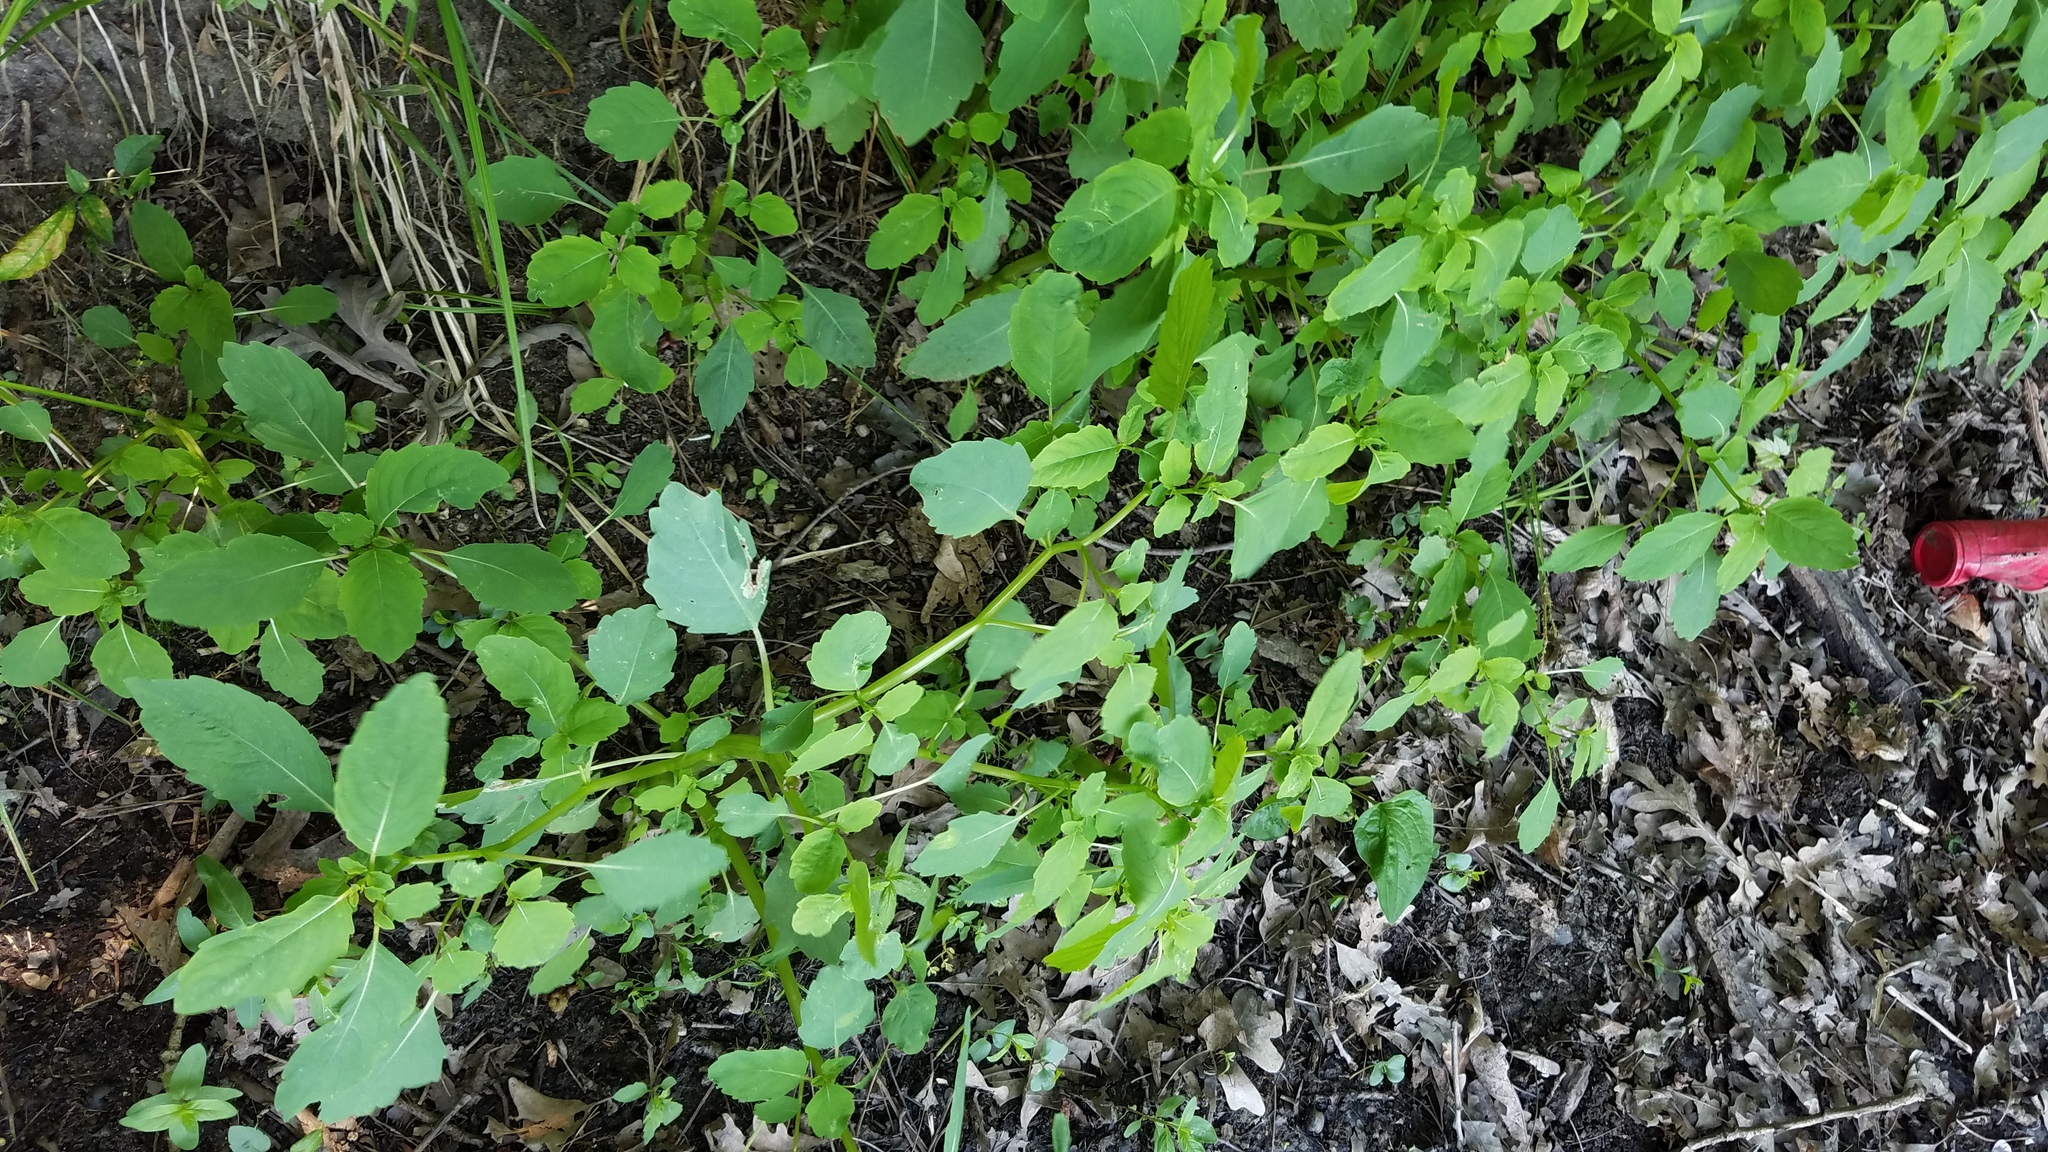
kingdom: Plantae
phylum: Tracheophyta
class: Magnoliopsida
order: Ericales
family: Balsaminaceae
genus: Impatiens
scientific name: Impatiens capensis
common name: Orange balsam
